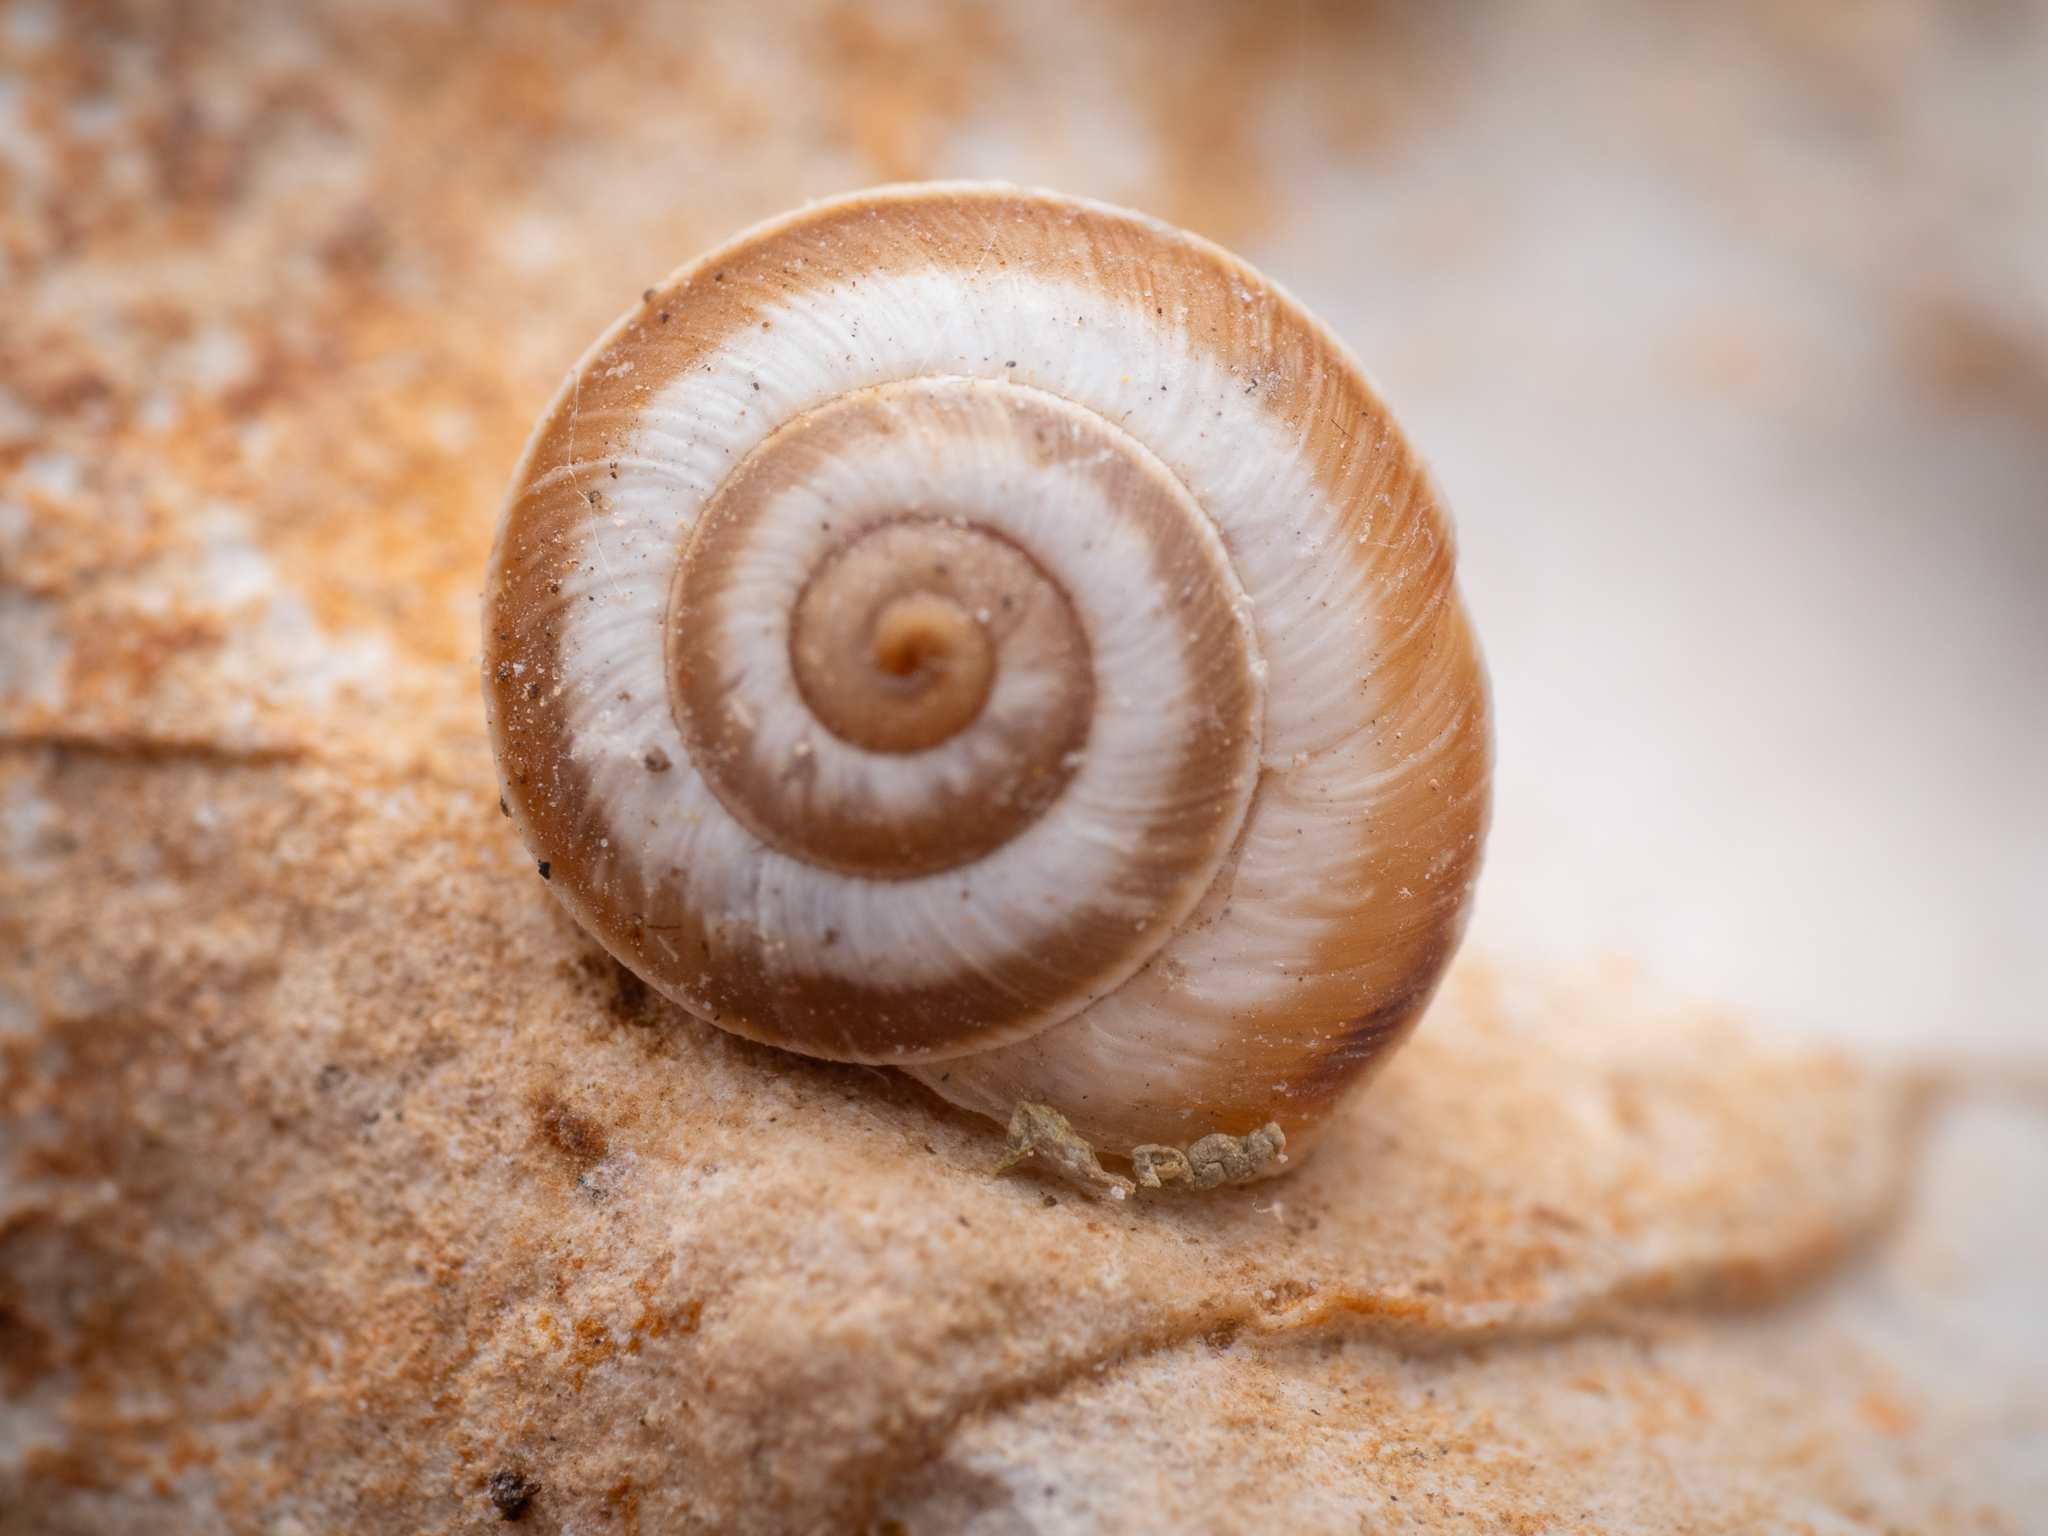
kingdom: Animalia
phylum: Mollusca
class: Gastropoda
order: Stylommatophora
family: Geomitridae
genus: Cernuella
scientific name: Cernuella virgata
